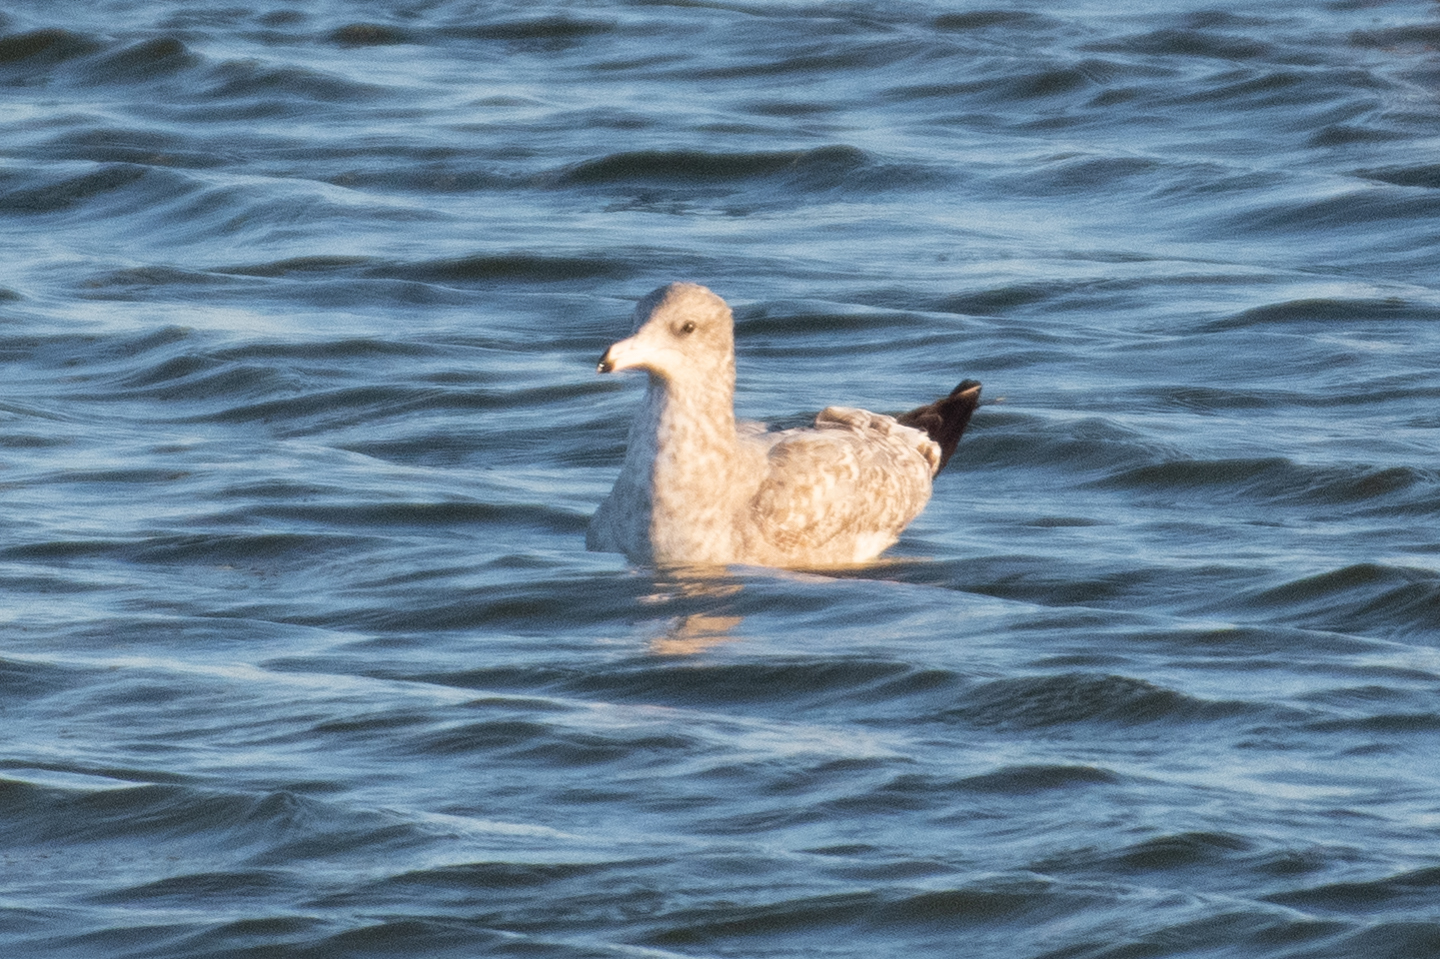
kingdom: Animalia
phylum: Chordata
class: Aves
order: Charadriiformes
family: Laridae
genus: Larus
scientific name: Larus
